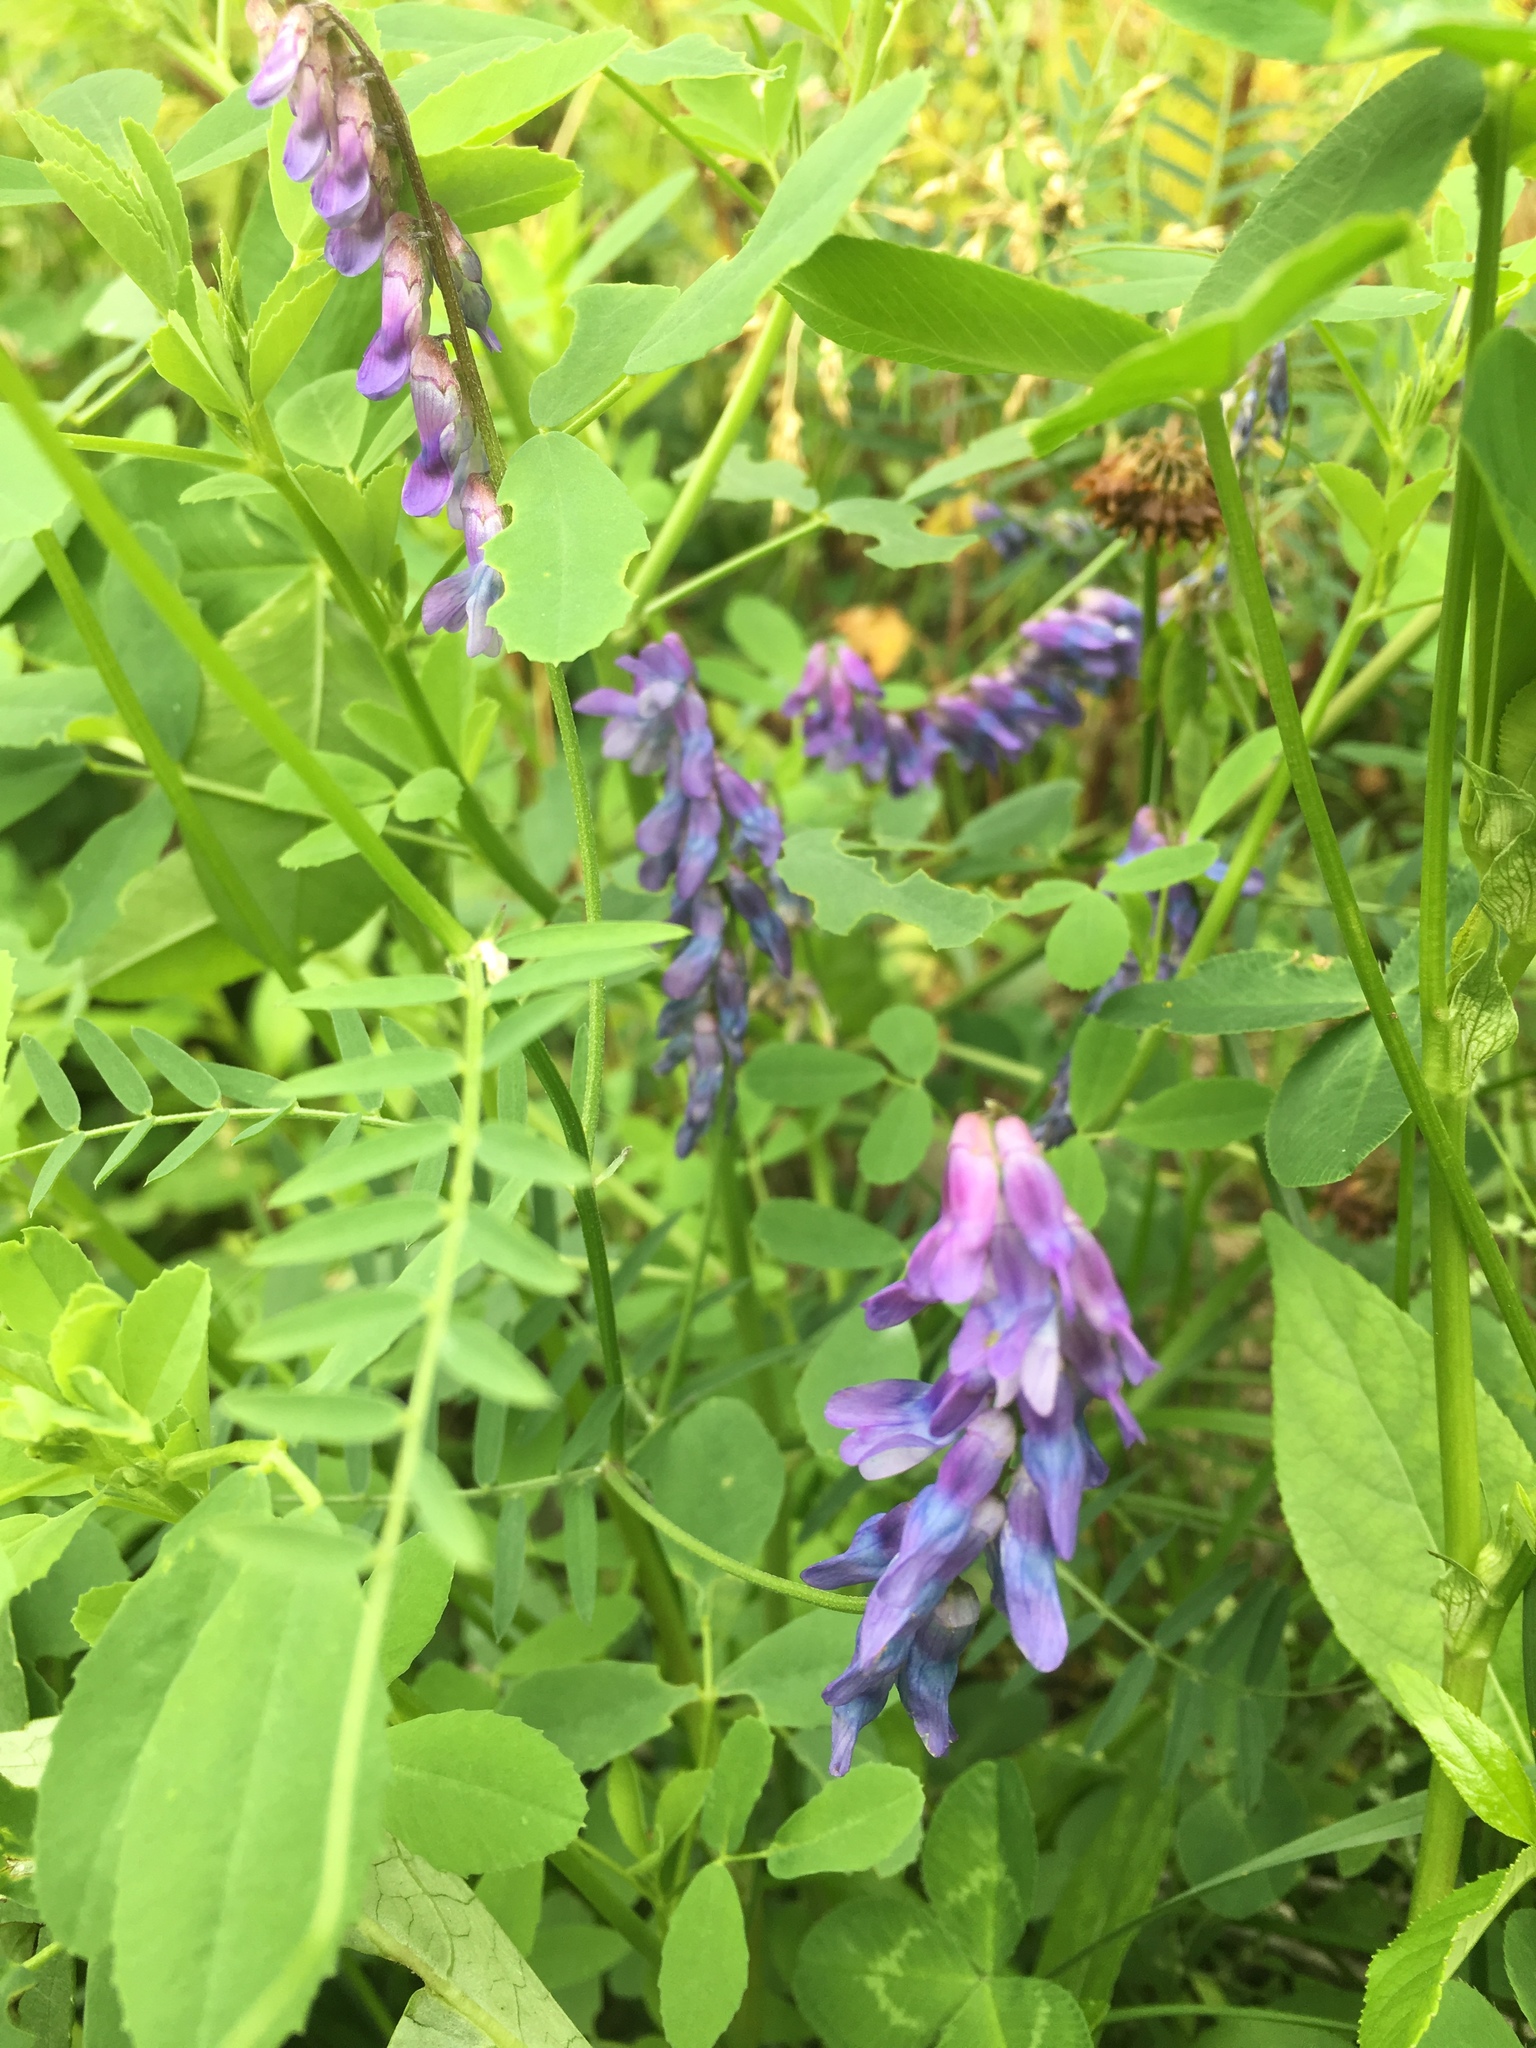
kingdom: Plantae
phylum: Tracheophyta
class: Magnoliopsida
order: Fabales
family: Fabaceae
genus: Vicia
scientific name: Vicia cracca
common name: Bird vetch
